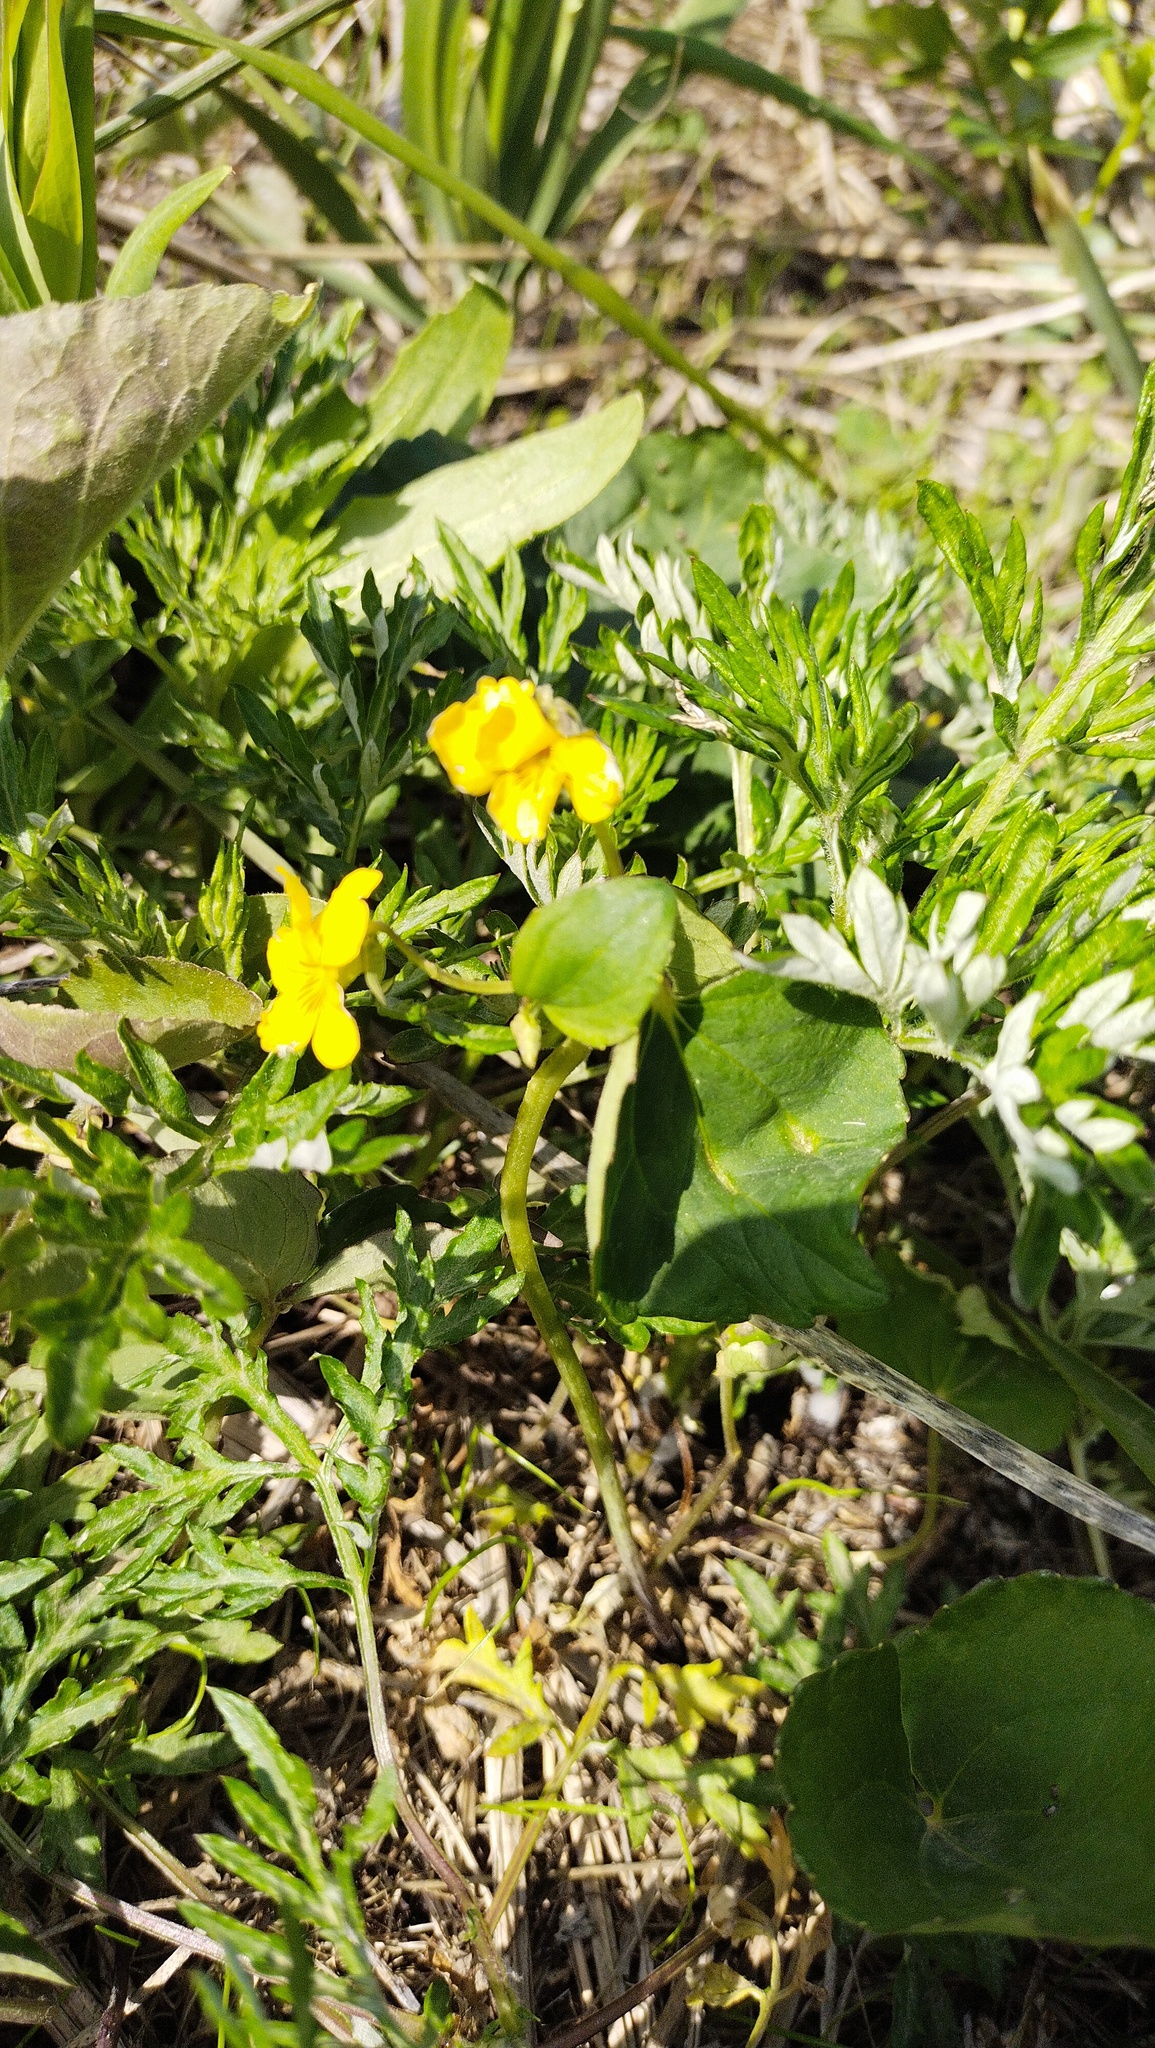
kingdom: Plantae
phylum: Tracheophyta
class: Magnoliopsida
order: Malpighiales
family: Violaceae
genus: Viola
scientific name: Viola orientalis
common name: Golden violet
